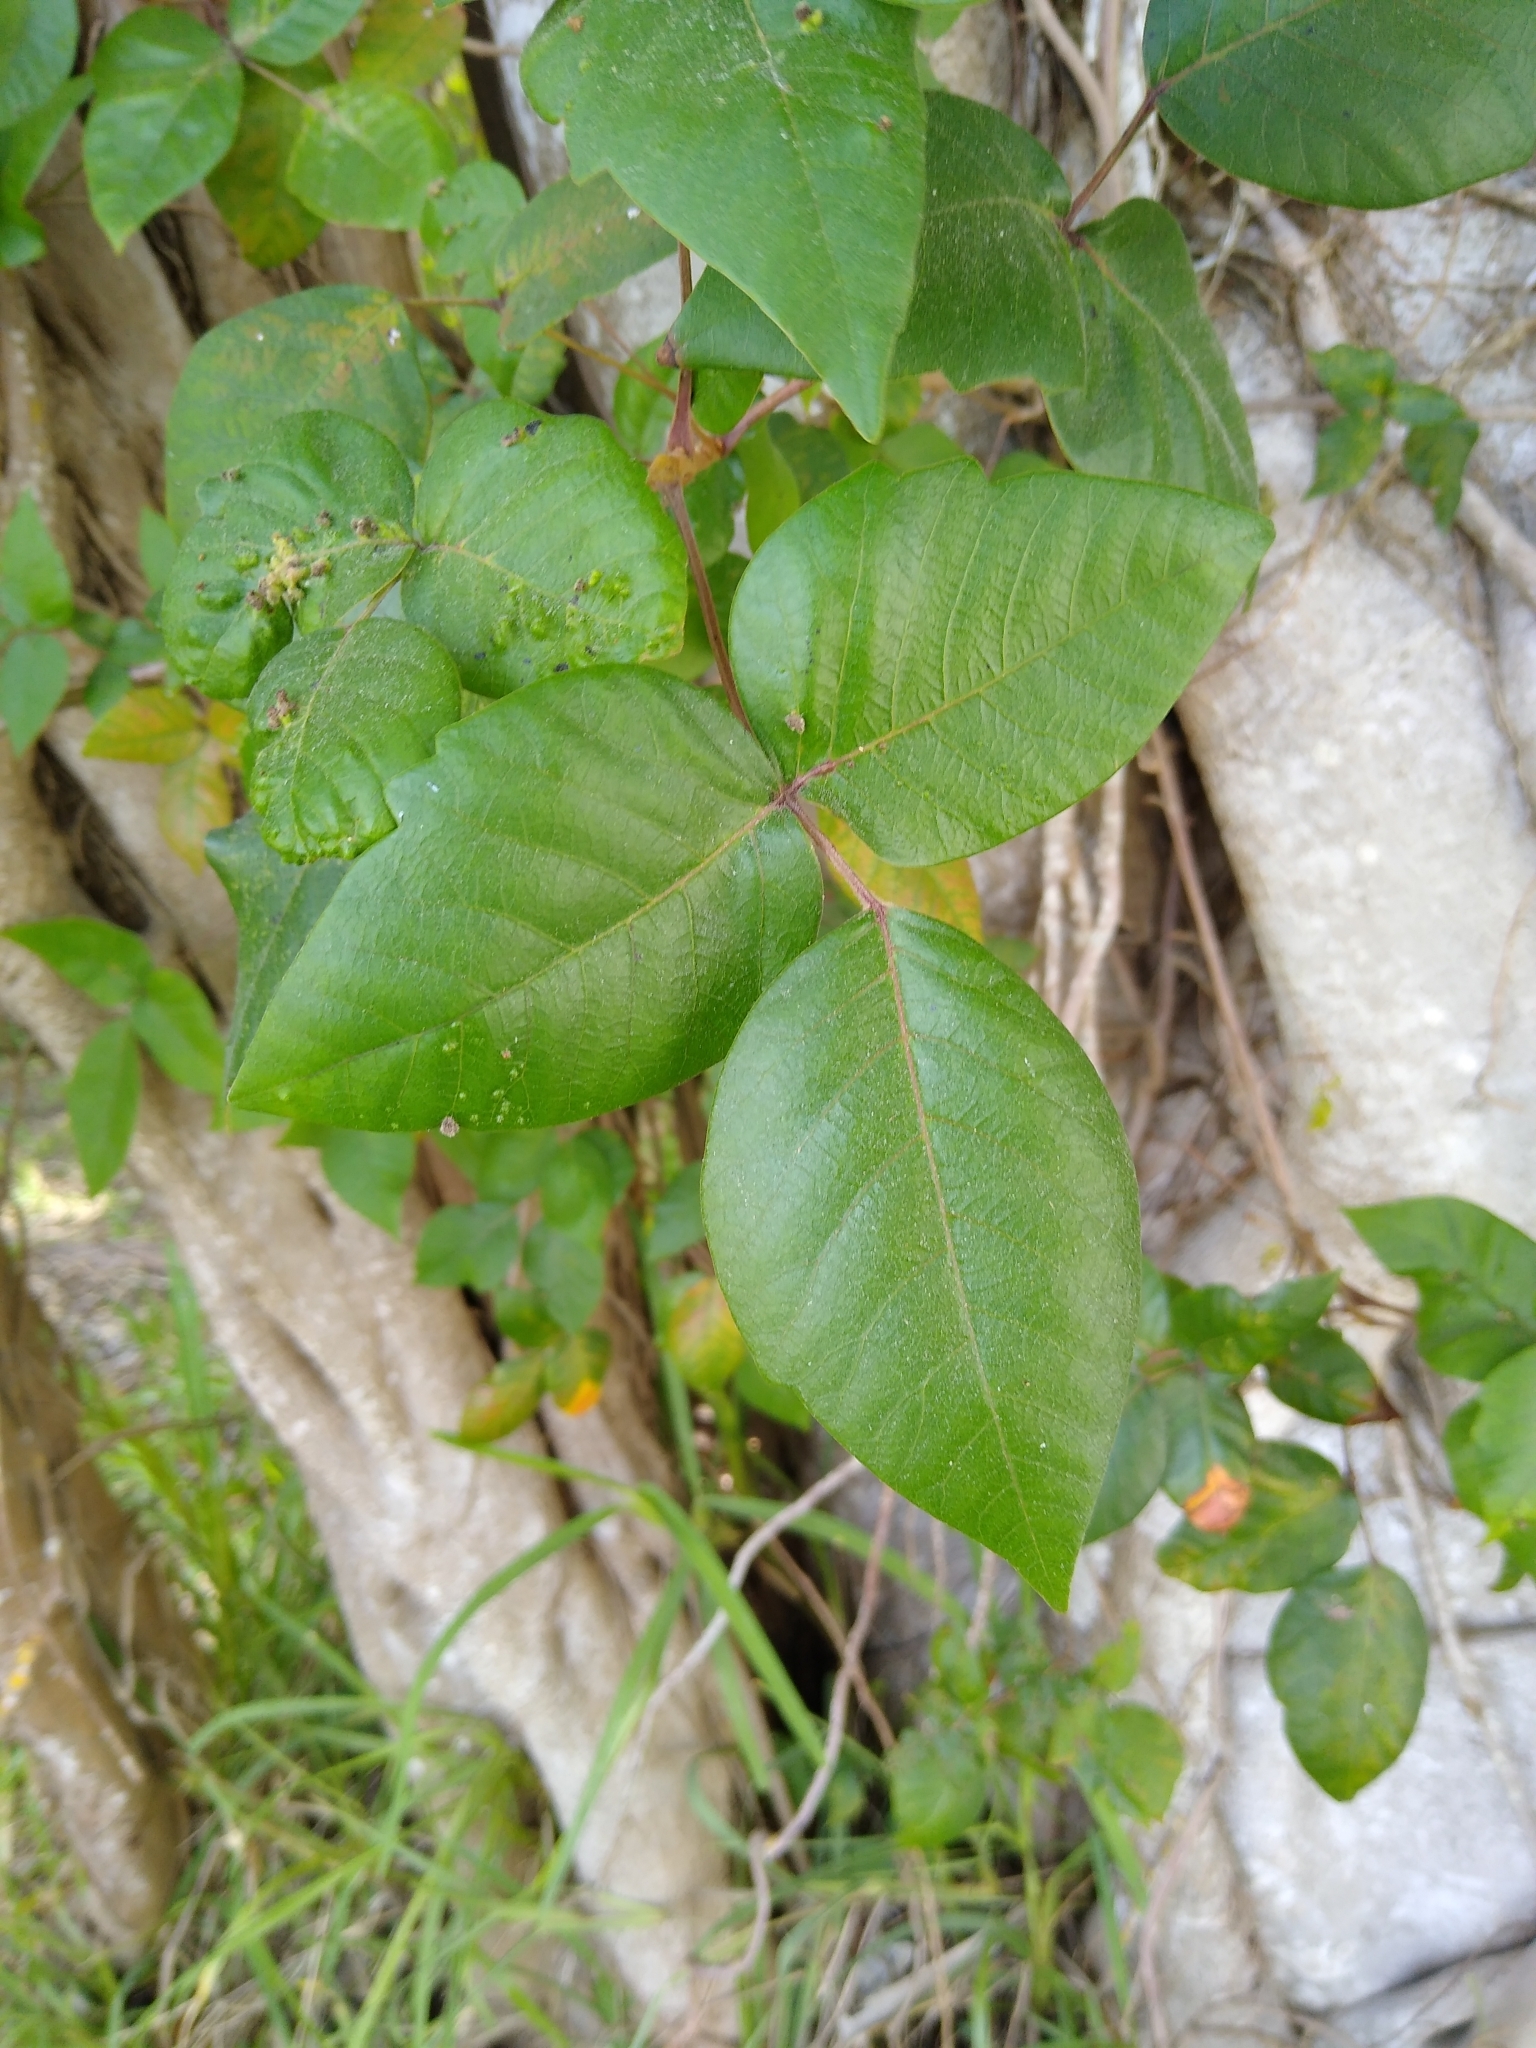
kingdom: Plantae
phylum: Tracheophyta
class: Magnoliopsida
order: Sapindales
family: Anacardiaceae
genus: Toxicodendron
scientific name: Toxicodendron radicans
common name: Poison ivy
